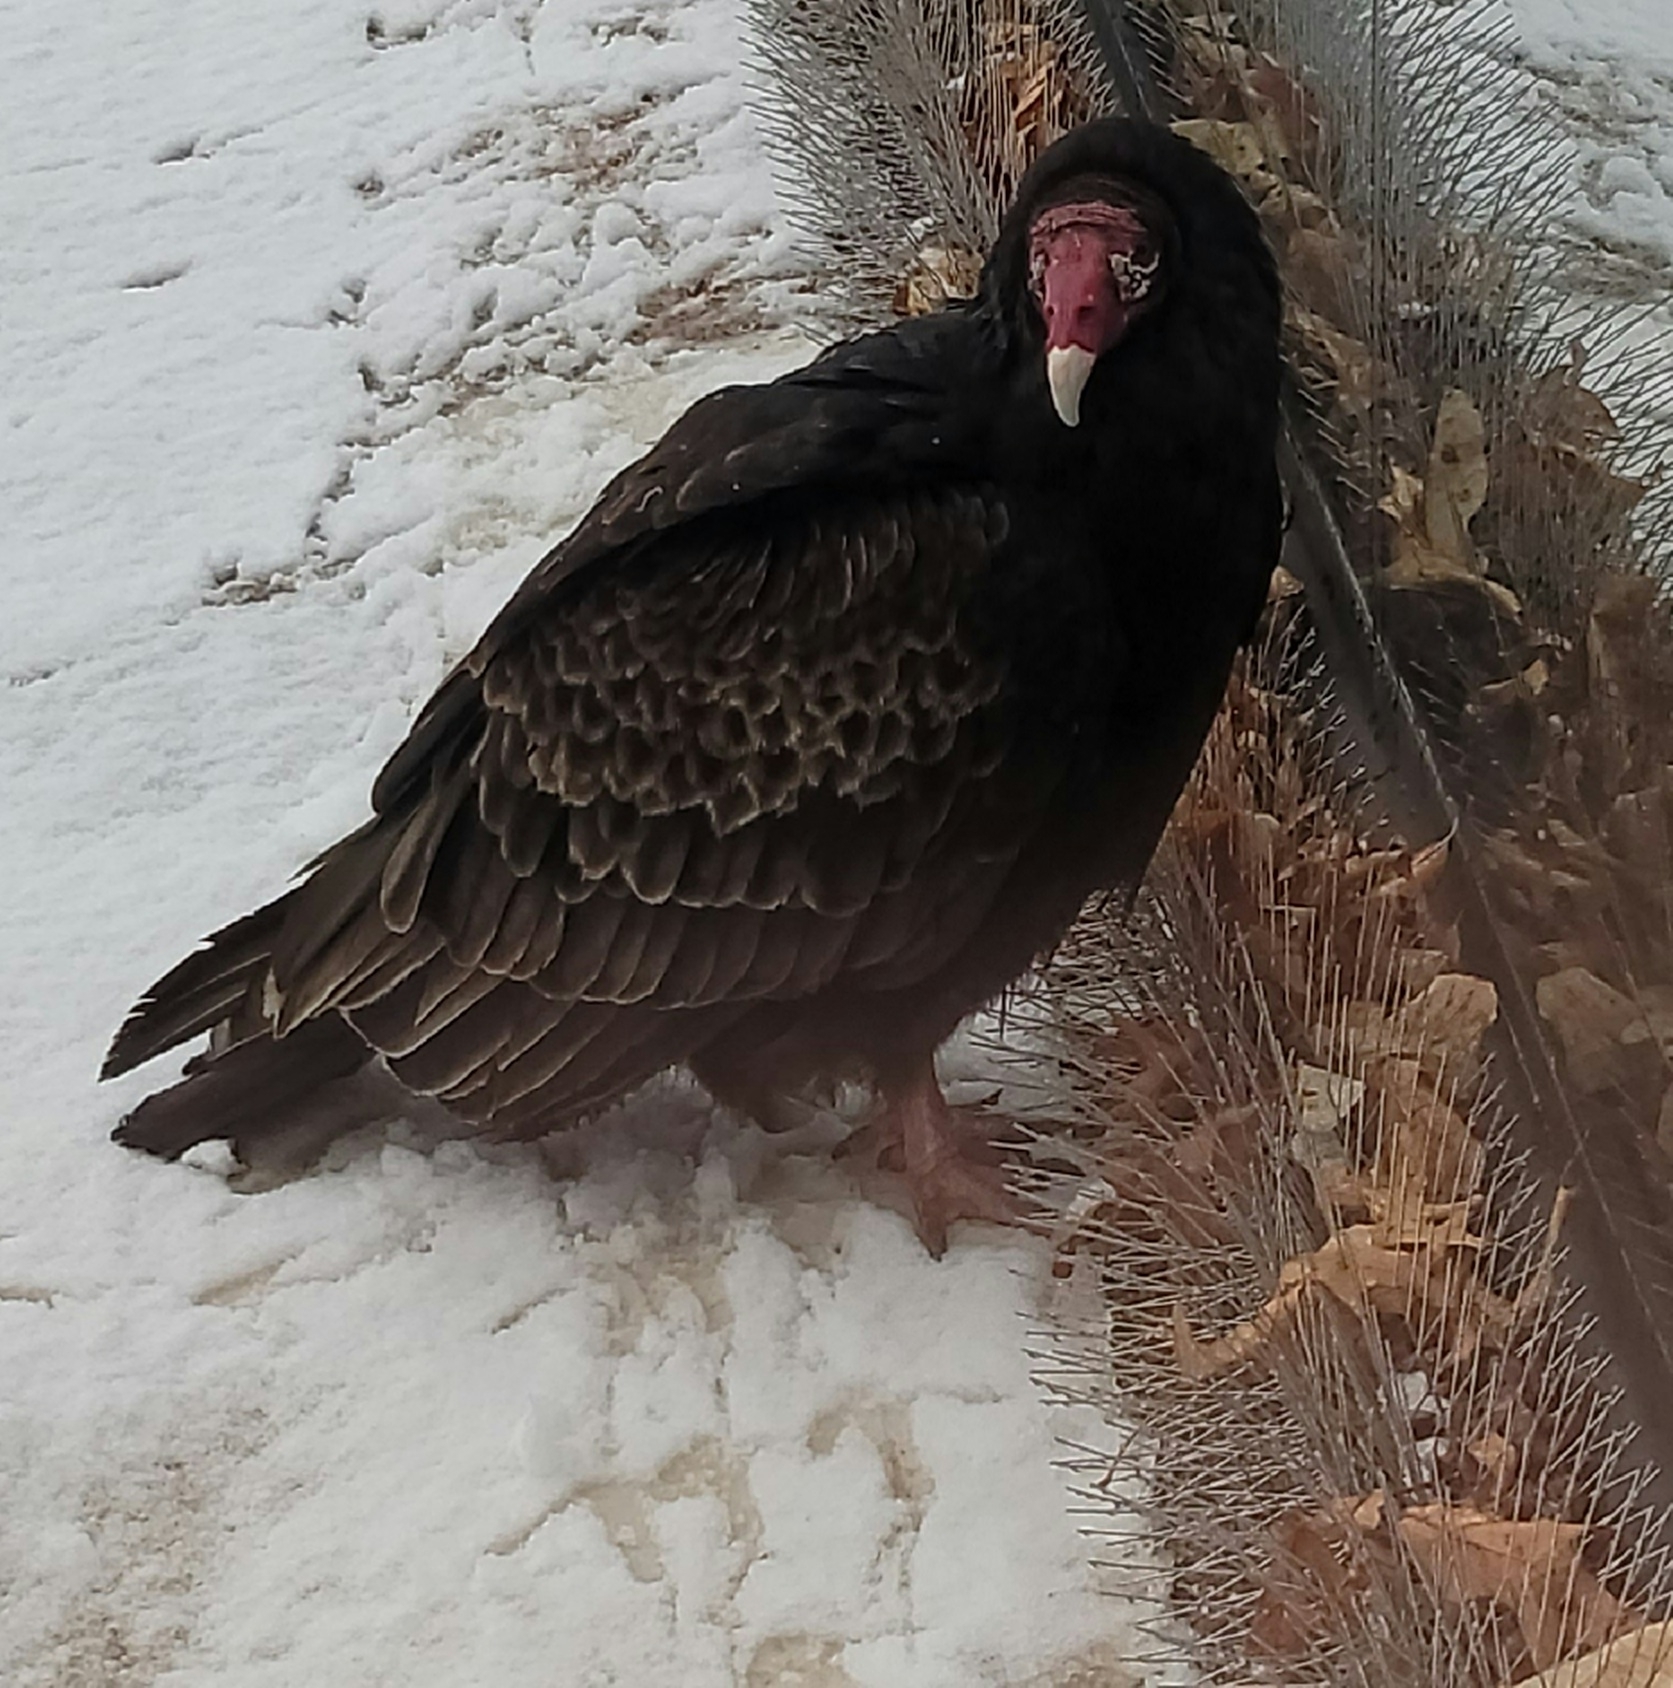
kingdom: Animalia
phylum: Chordata
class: Aves
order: Accipitriformes
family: Cathartidae
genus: Cathartes
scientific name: Cathartes aura
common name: Turkey vulture
